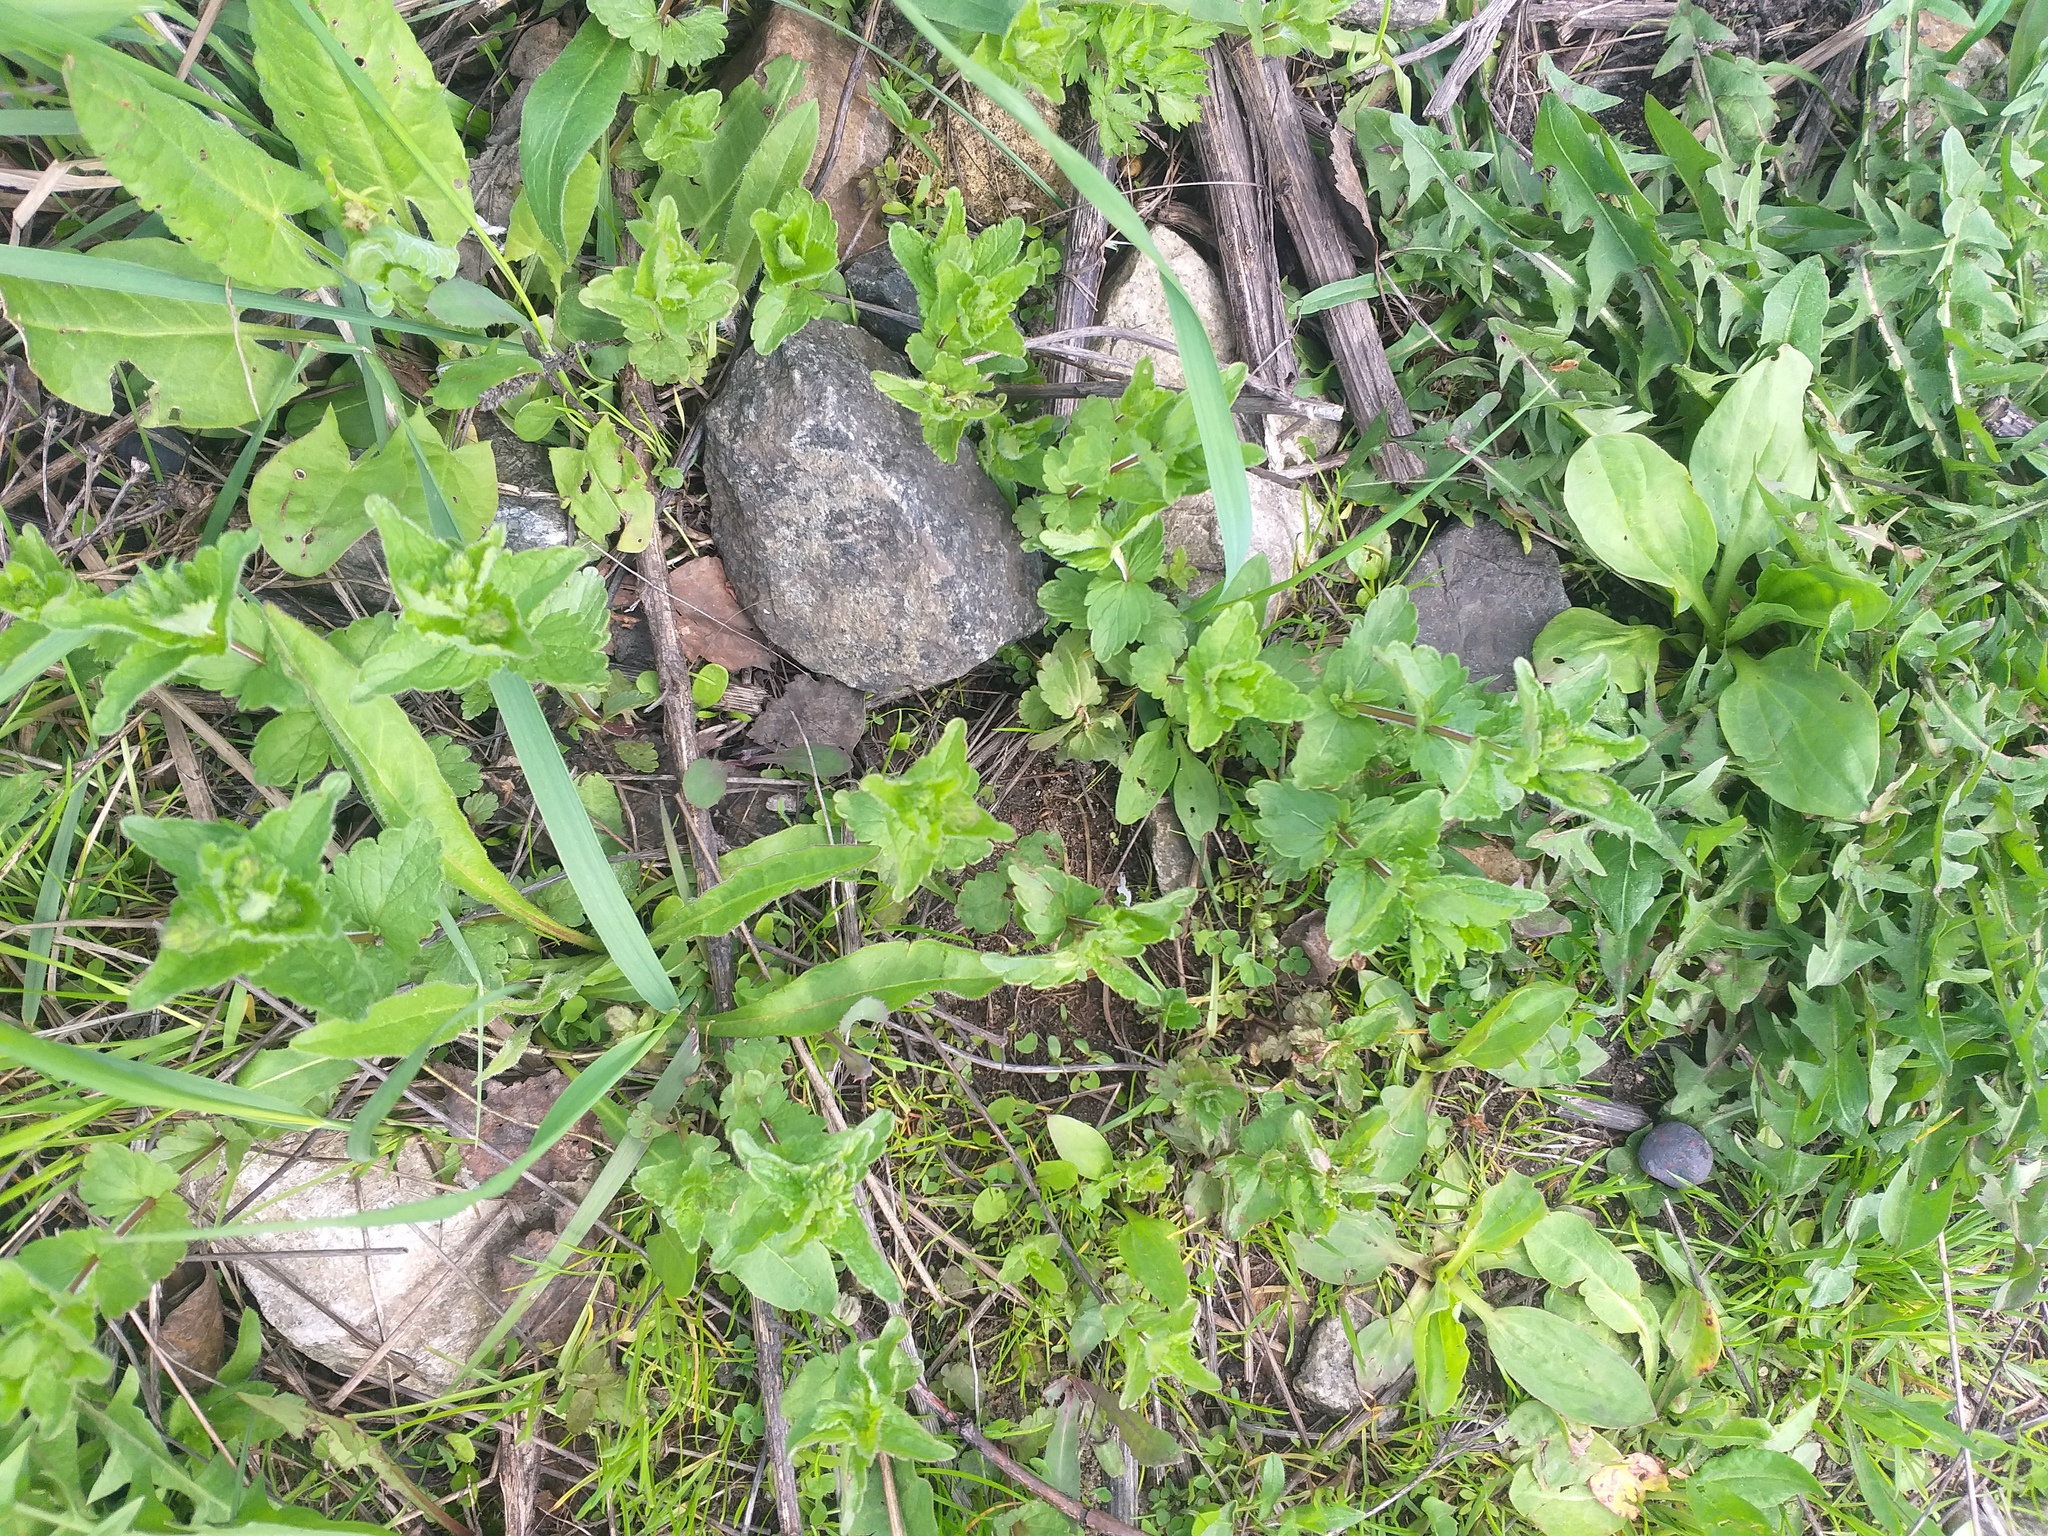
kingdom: Plantae
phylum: Tracheophyta
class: Magnoliopsida
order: Lamiales
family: Plantaginaceae
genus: Veronica
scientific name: Veronica chamaedrys
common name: Germander speedwell
